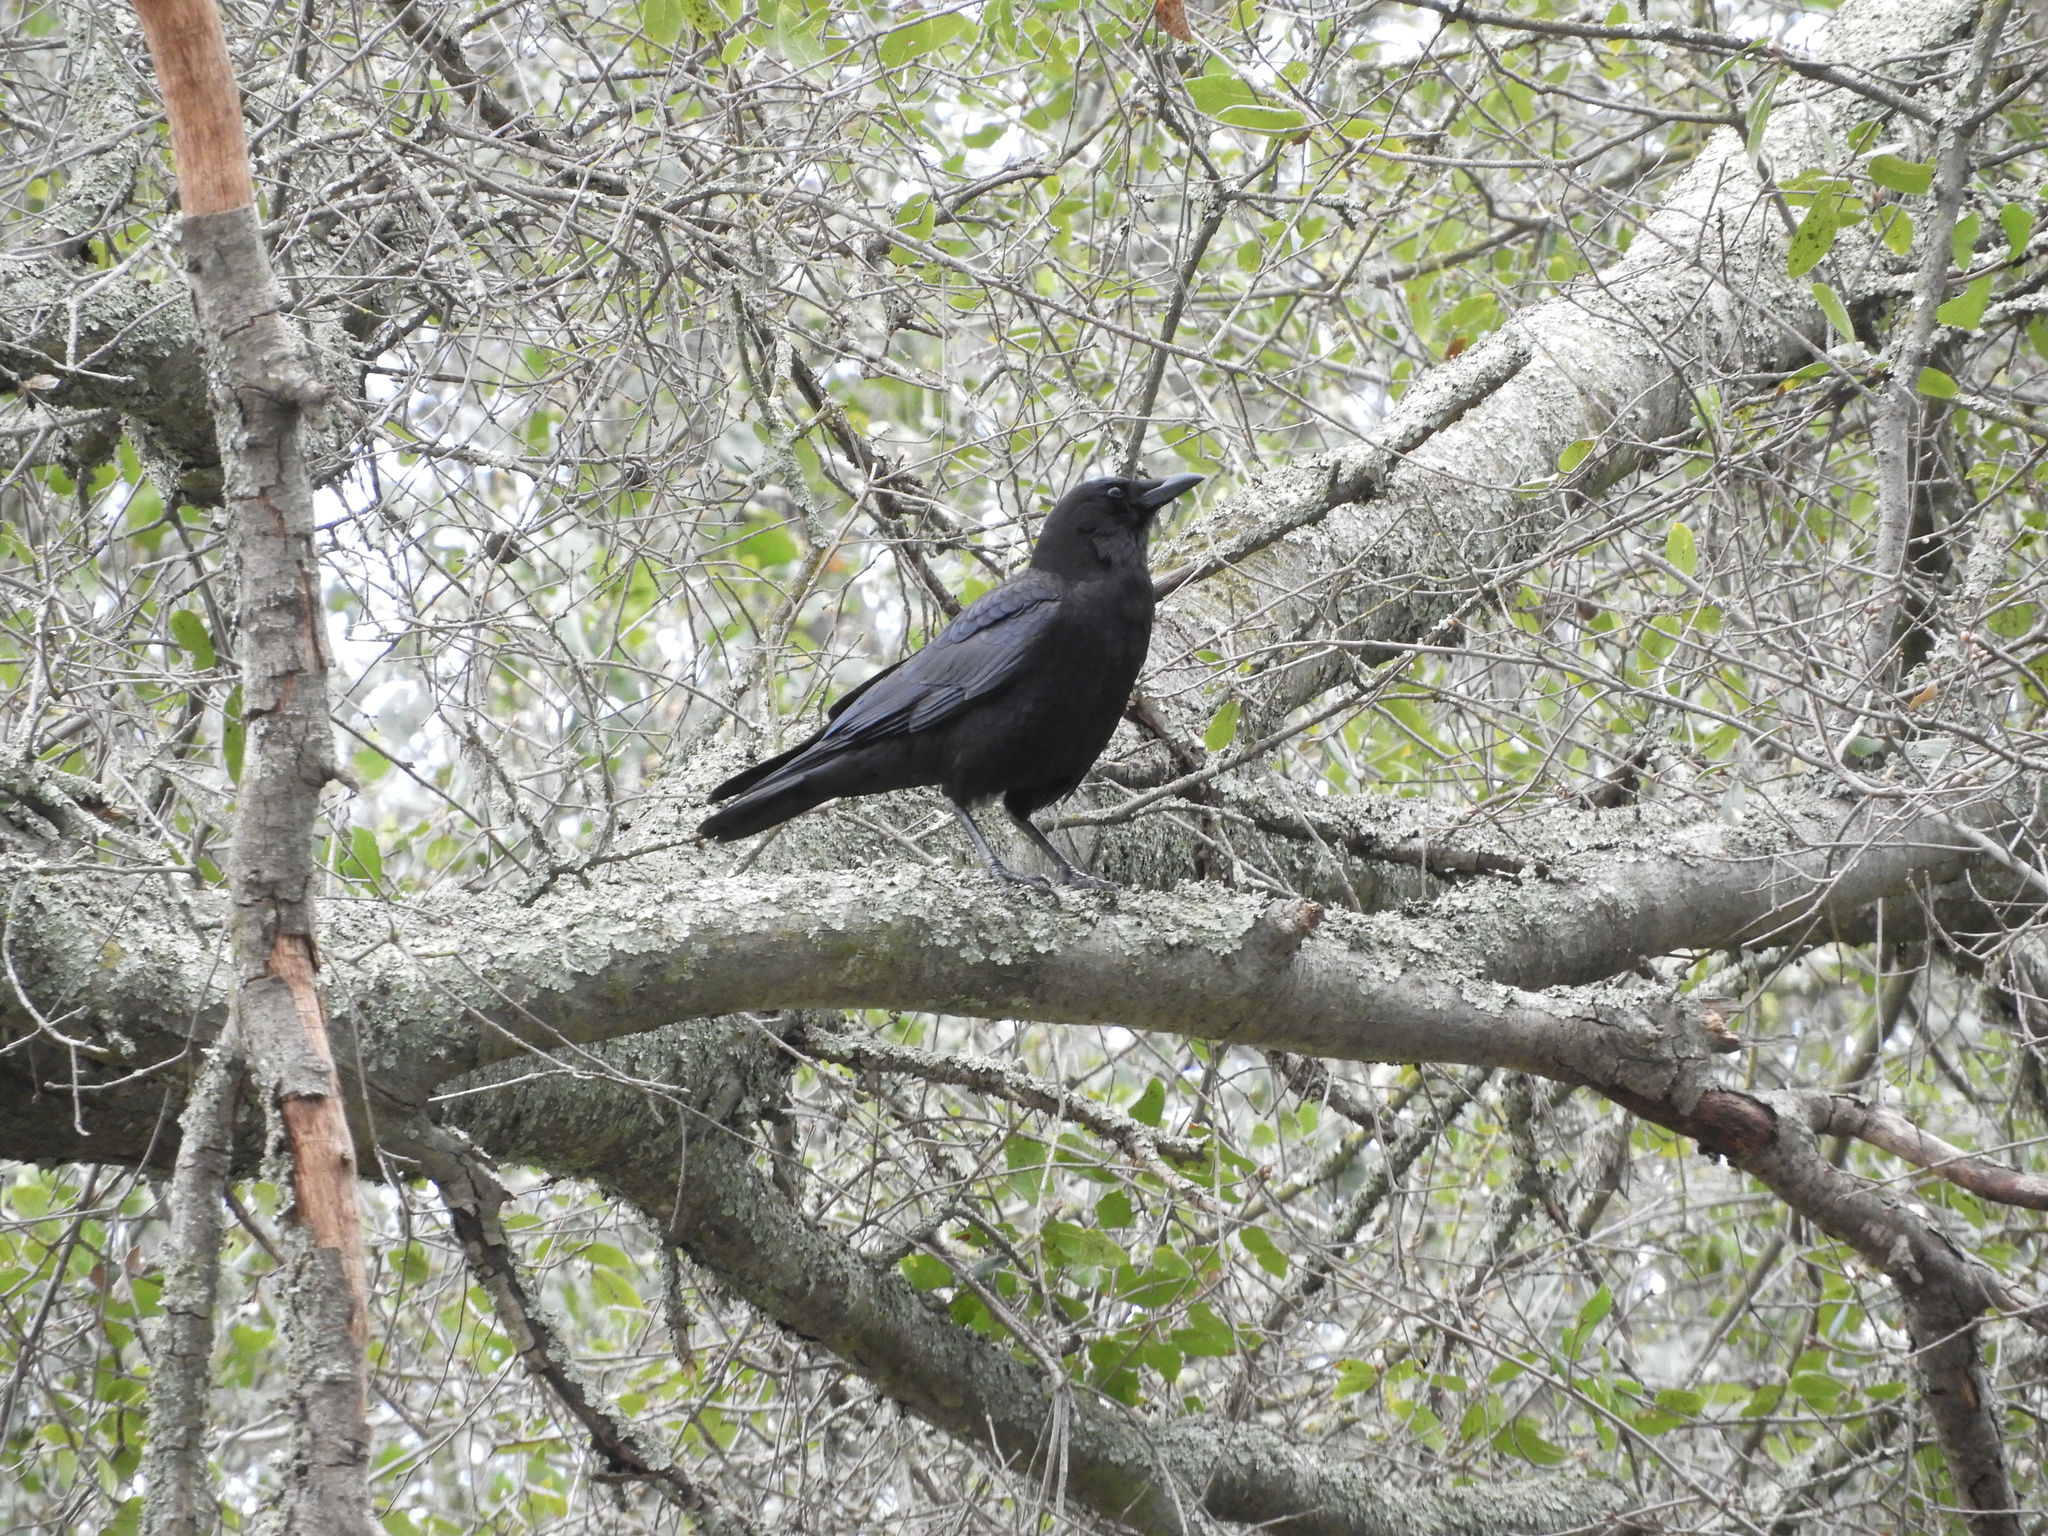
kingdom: Animalia
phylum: Chordata
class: Aves
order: Passeriformes
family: Corvidae
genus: Corvus
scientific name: Corvus brachyrhynchos
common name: American crow
